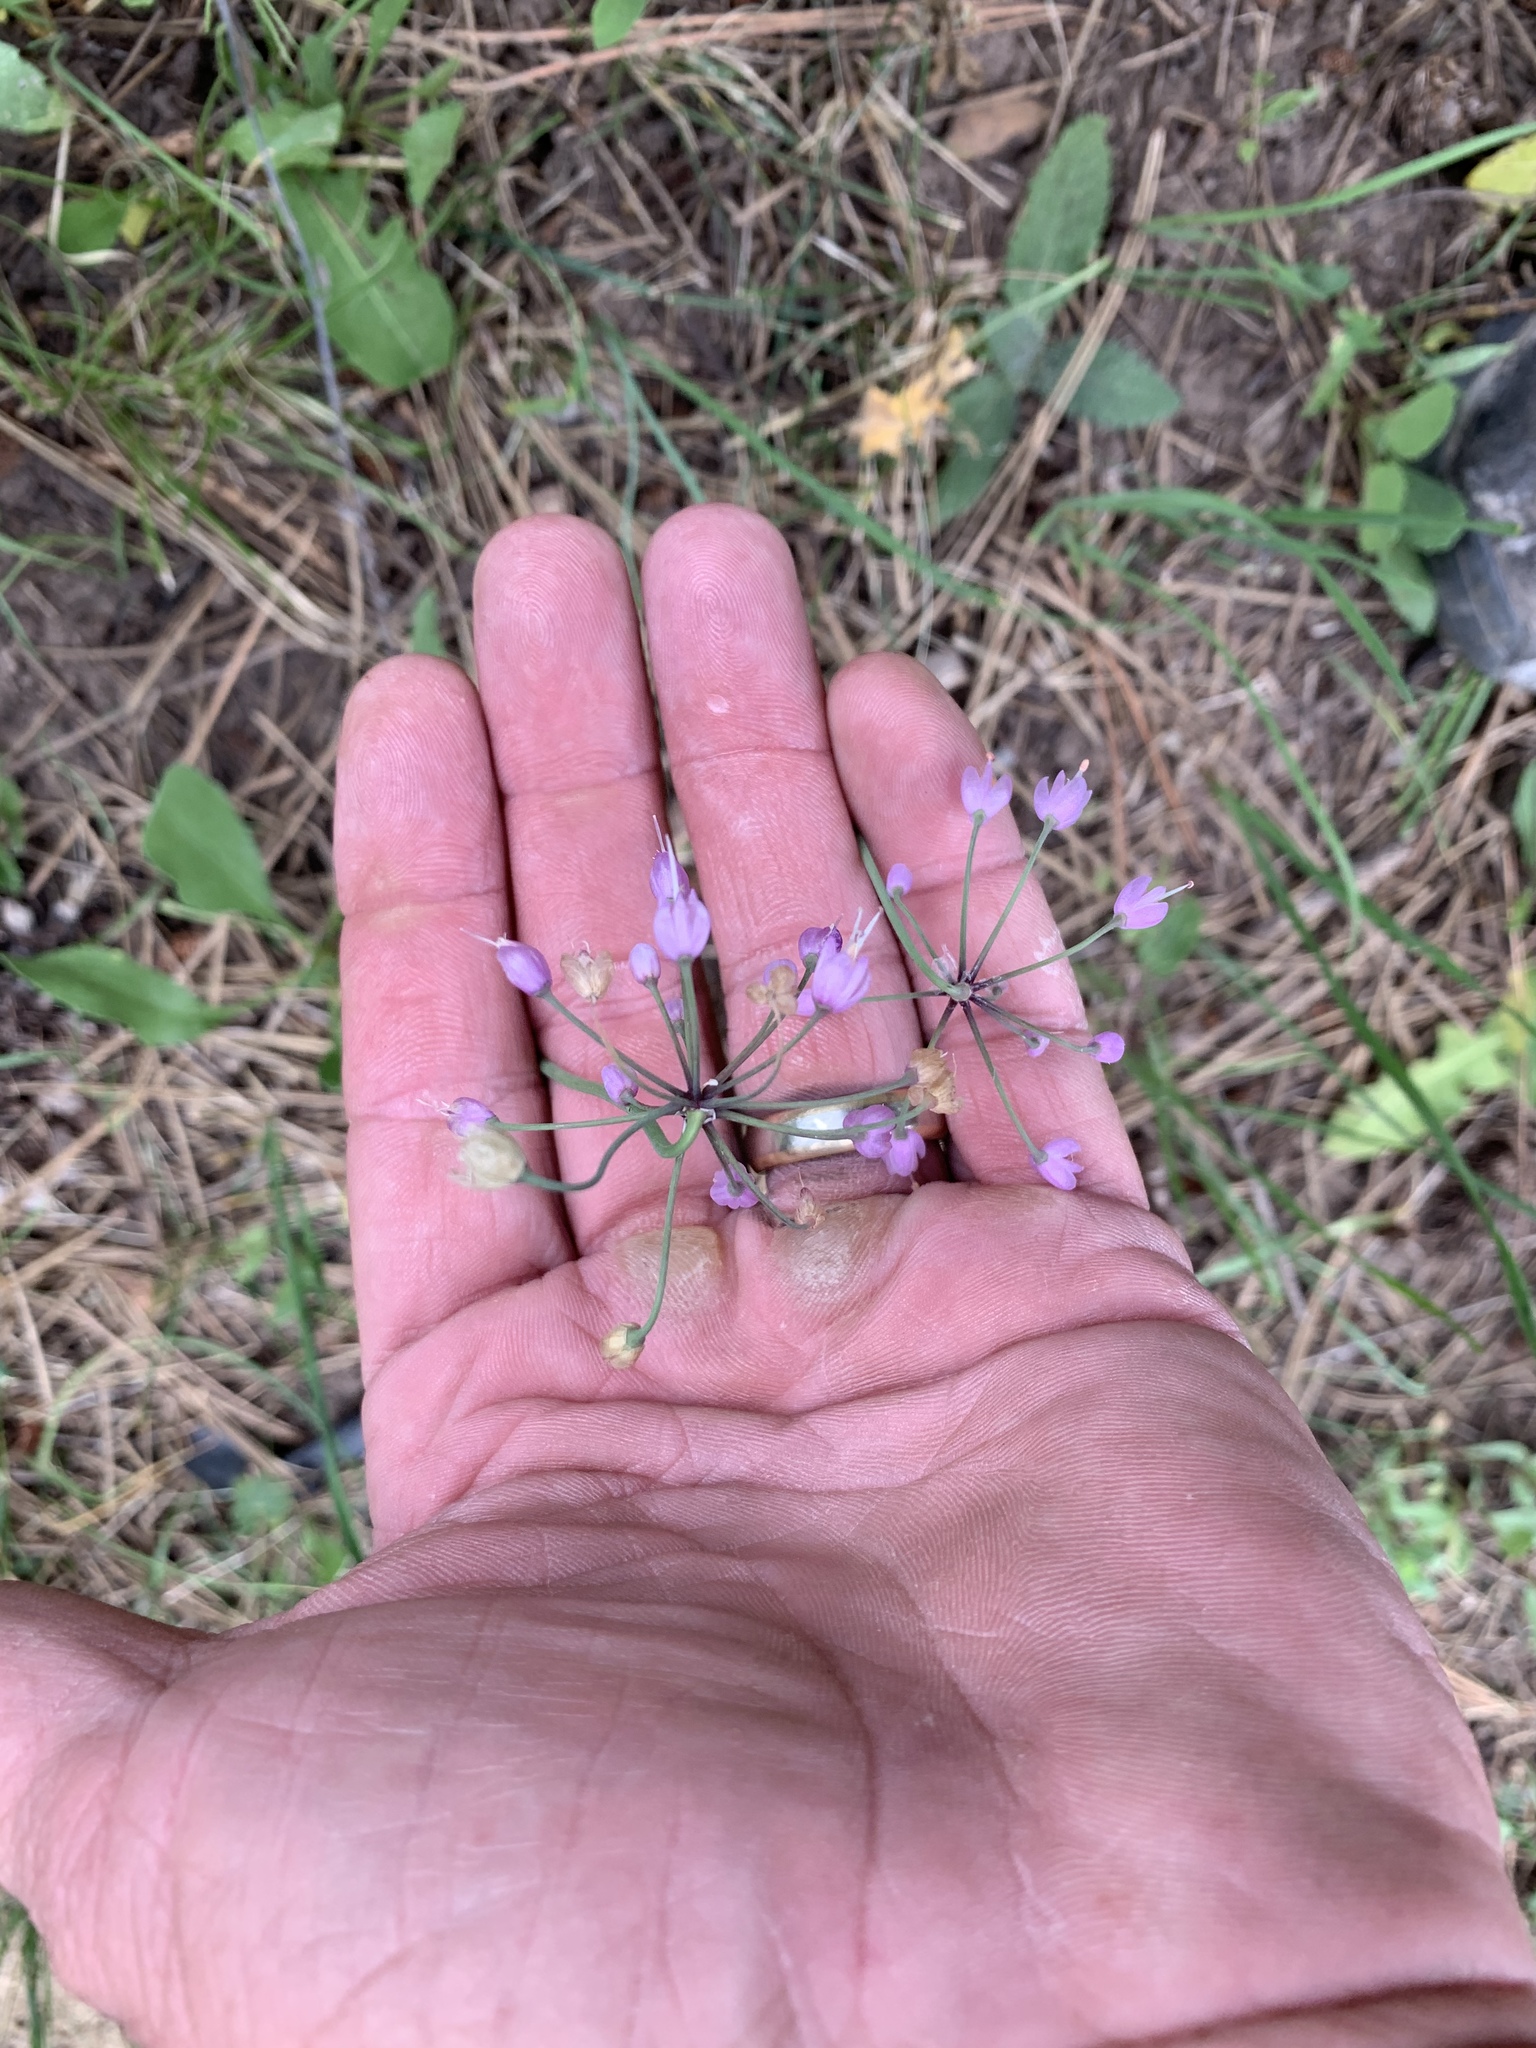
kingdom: Plantae
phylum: Tracheophyta
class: Liliopsida
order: Asparagales
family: Amaryllidaceae
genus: Allium
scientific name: Allium cernuum
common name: Nodding onion
